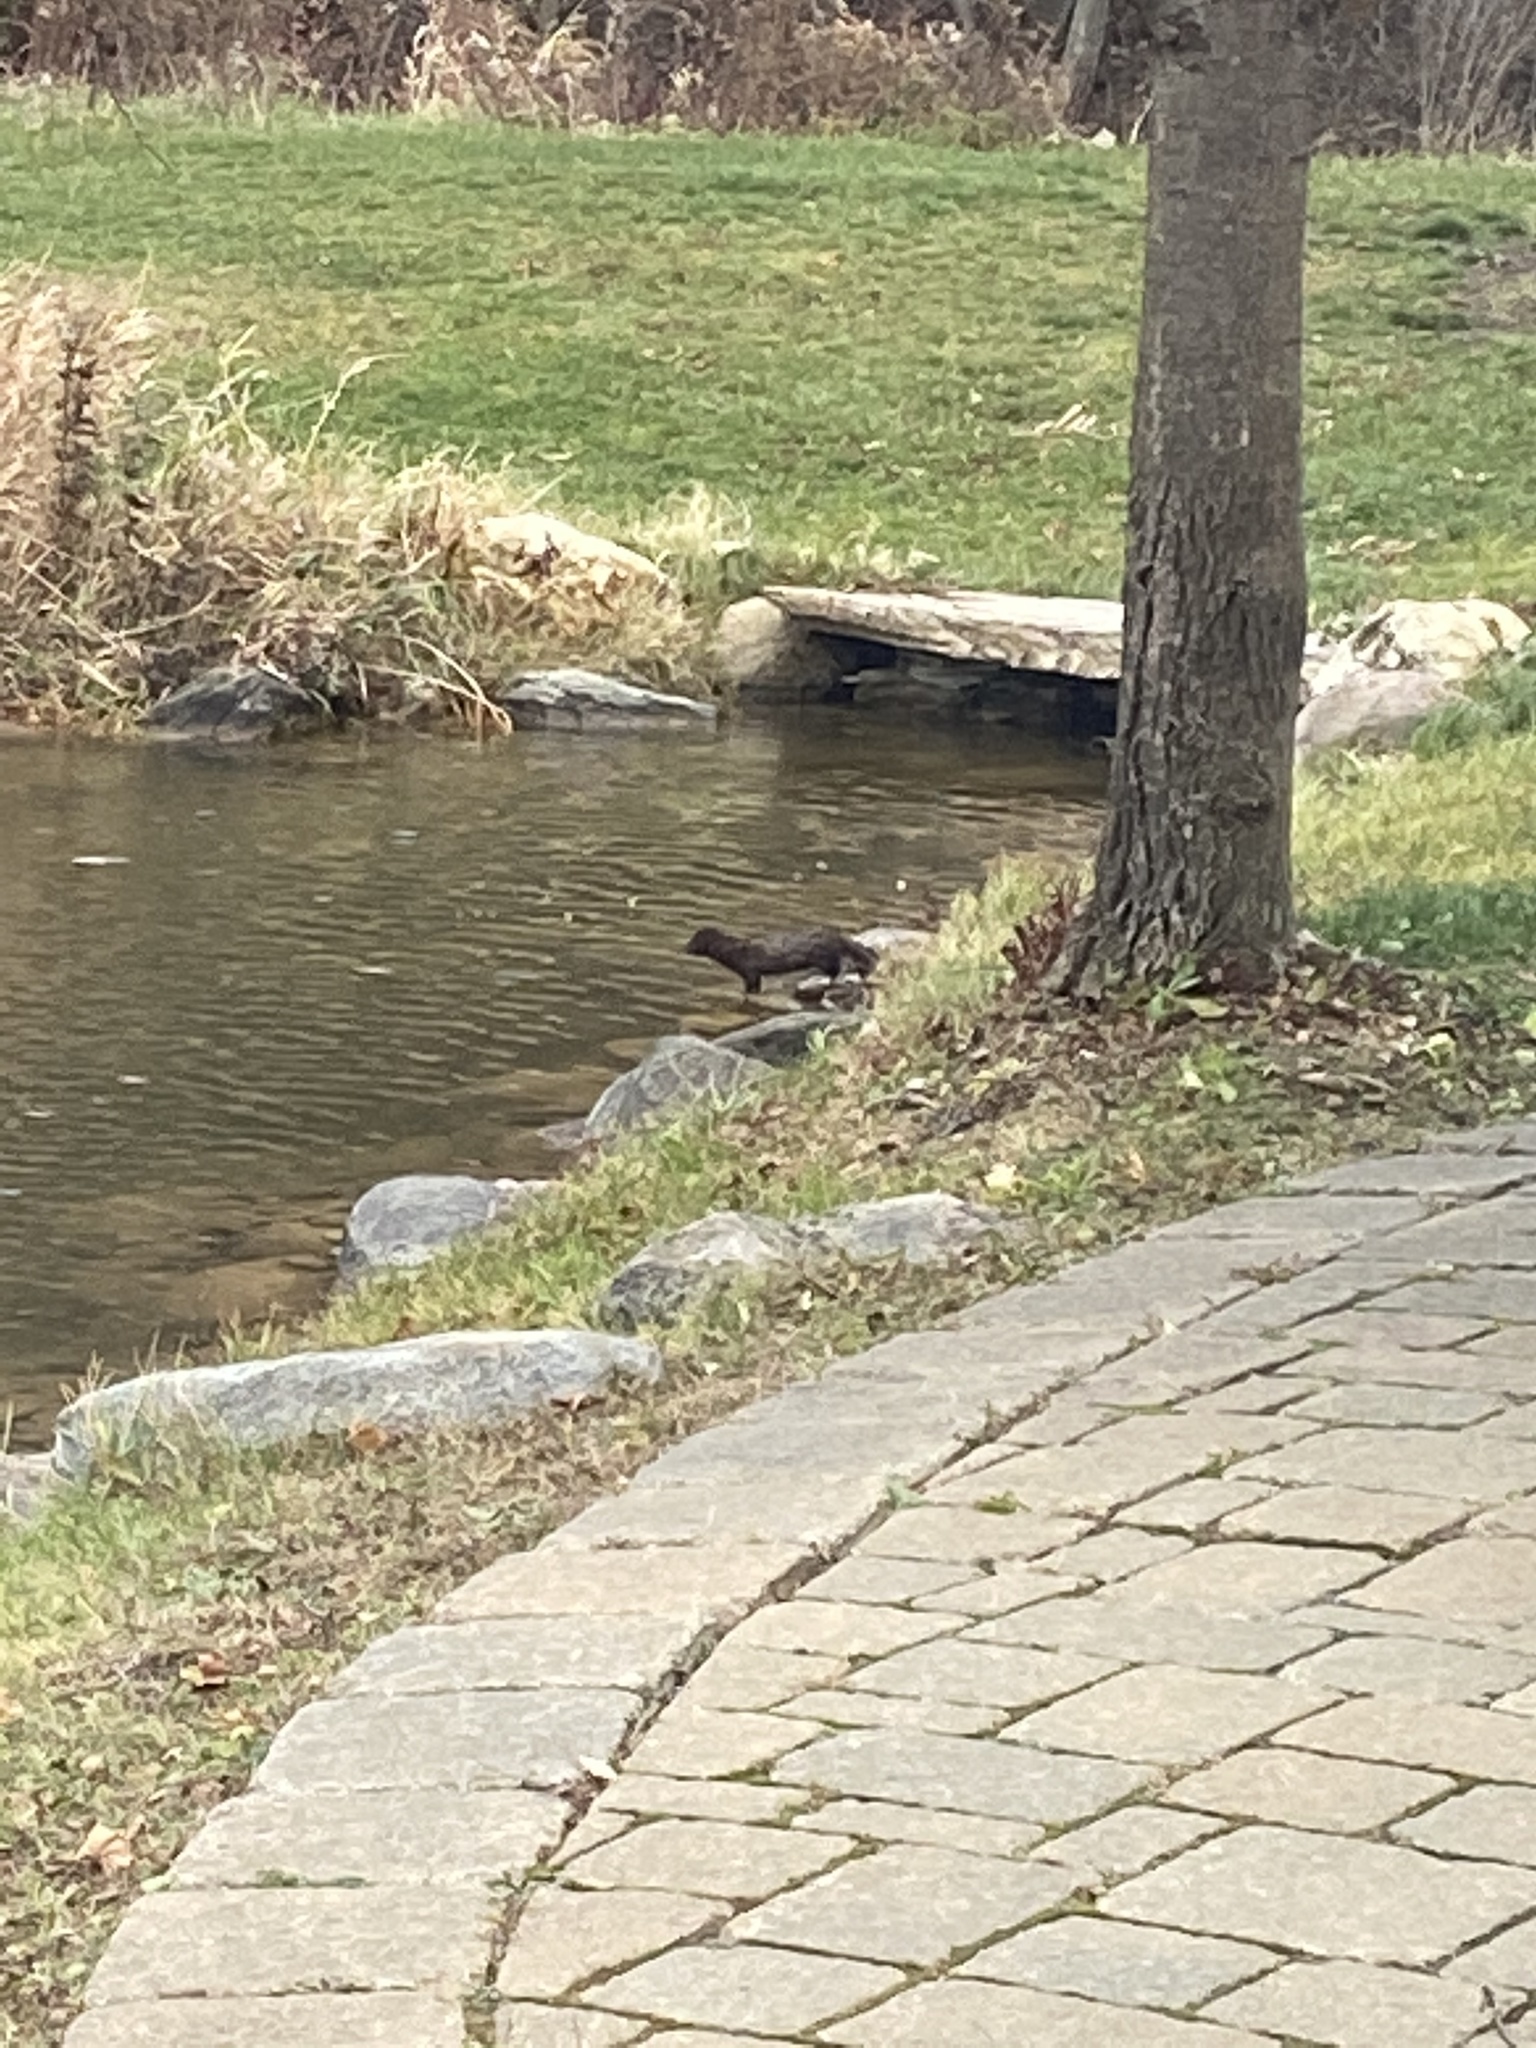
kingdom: Animalia
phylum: Chordata
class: Mammalia
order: Carnivora
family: Mustelidae
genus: Mustela
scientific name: Mustela
